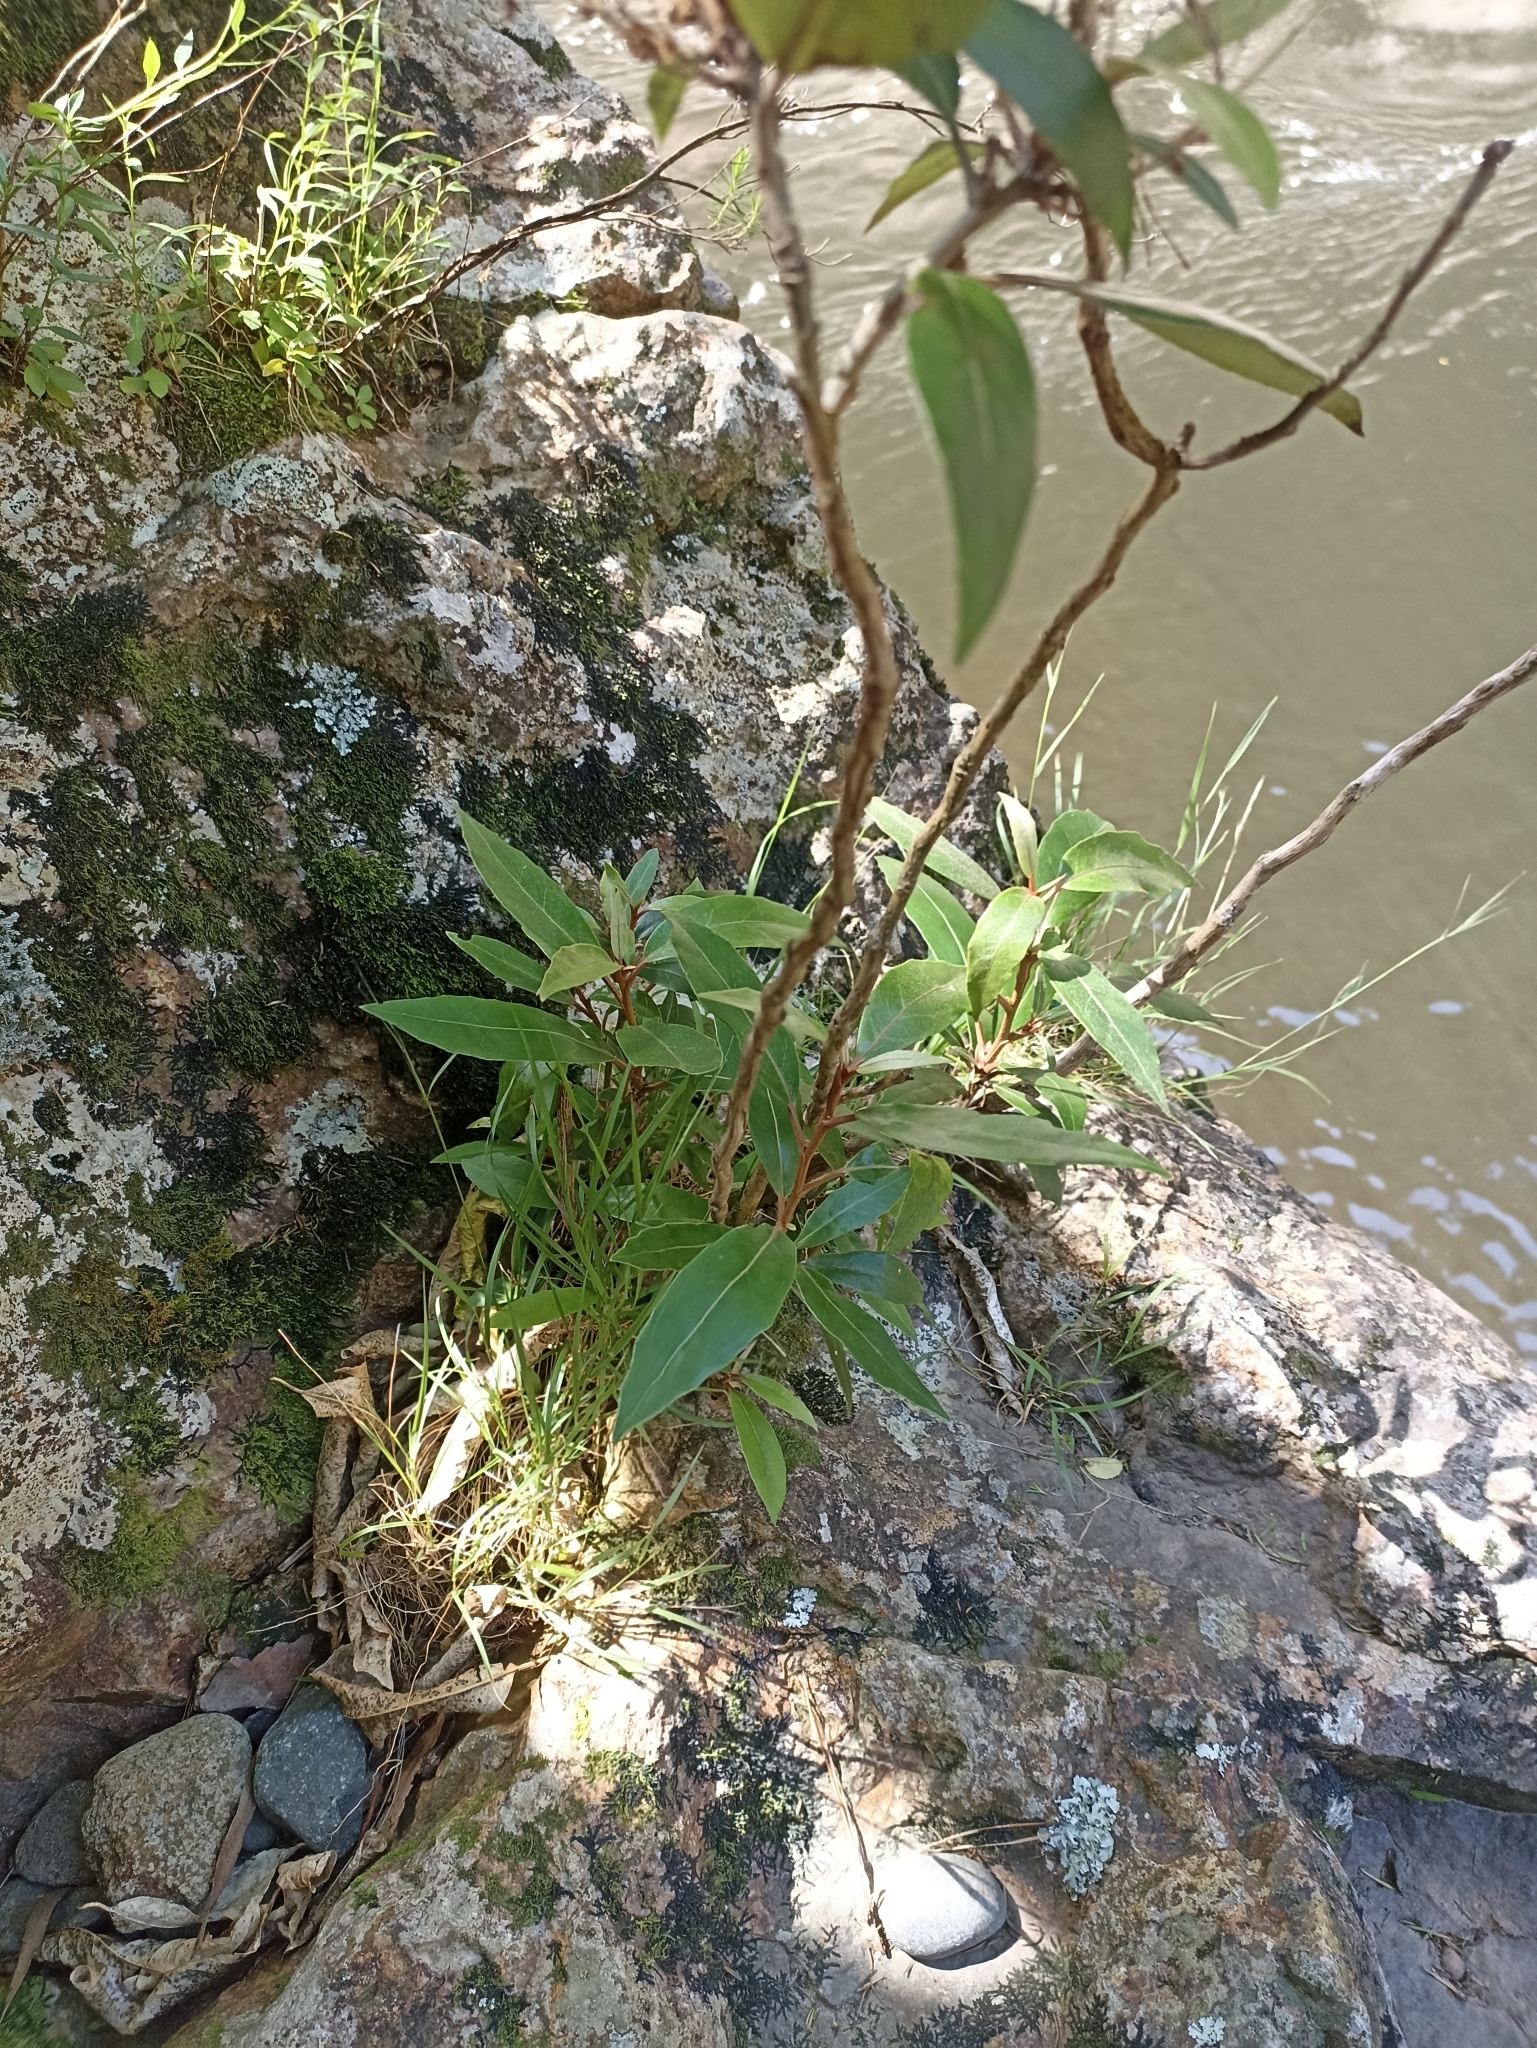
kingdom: Plantae
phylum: Tracheophyta
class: Magnoliopsida
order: Asterales
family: Asteraceae
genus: Olearia
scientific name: Olearia cheesemanii
